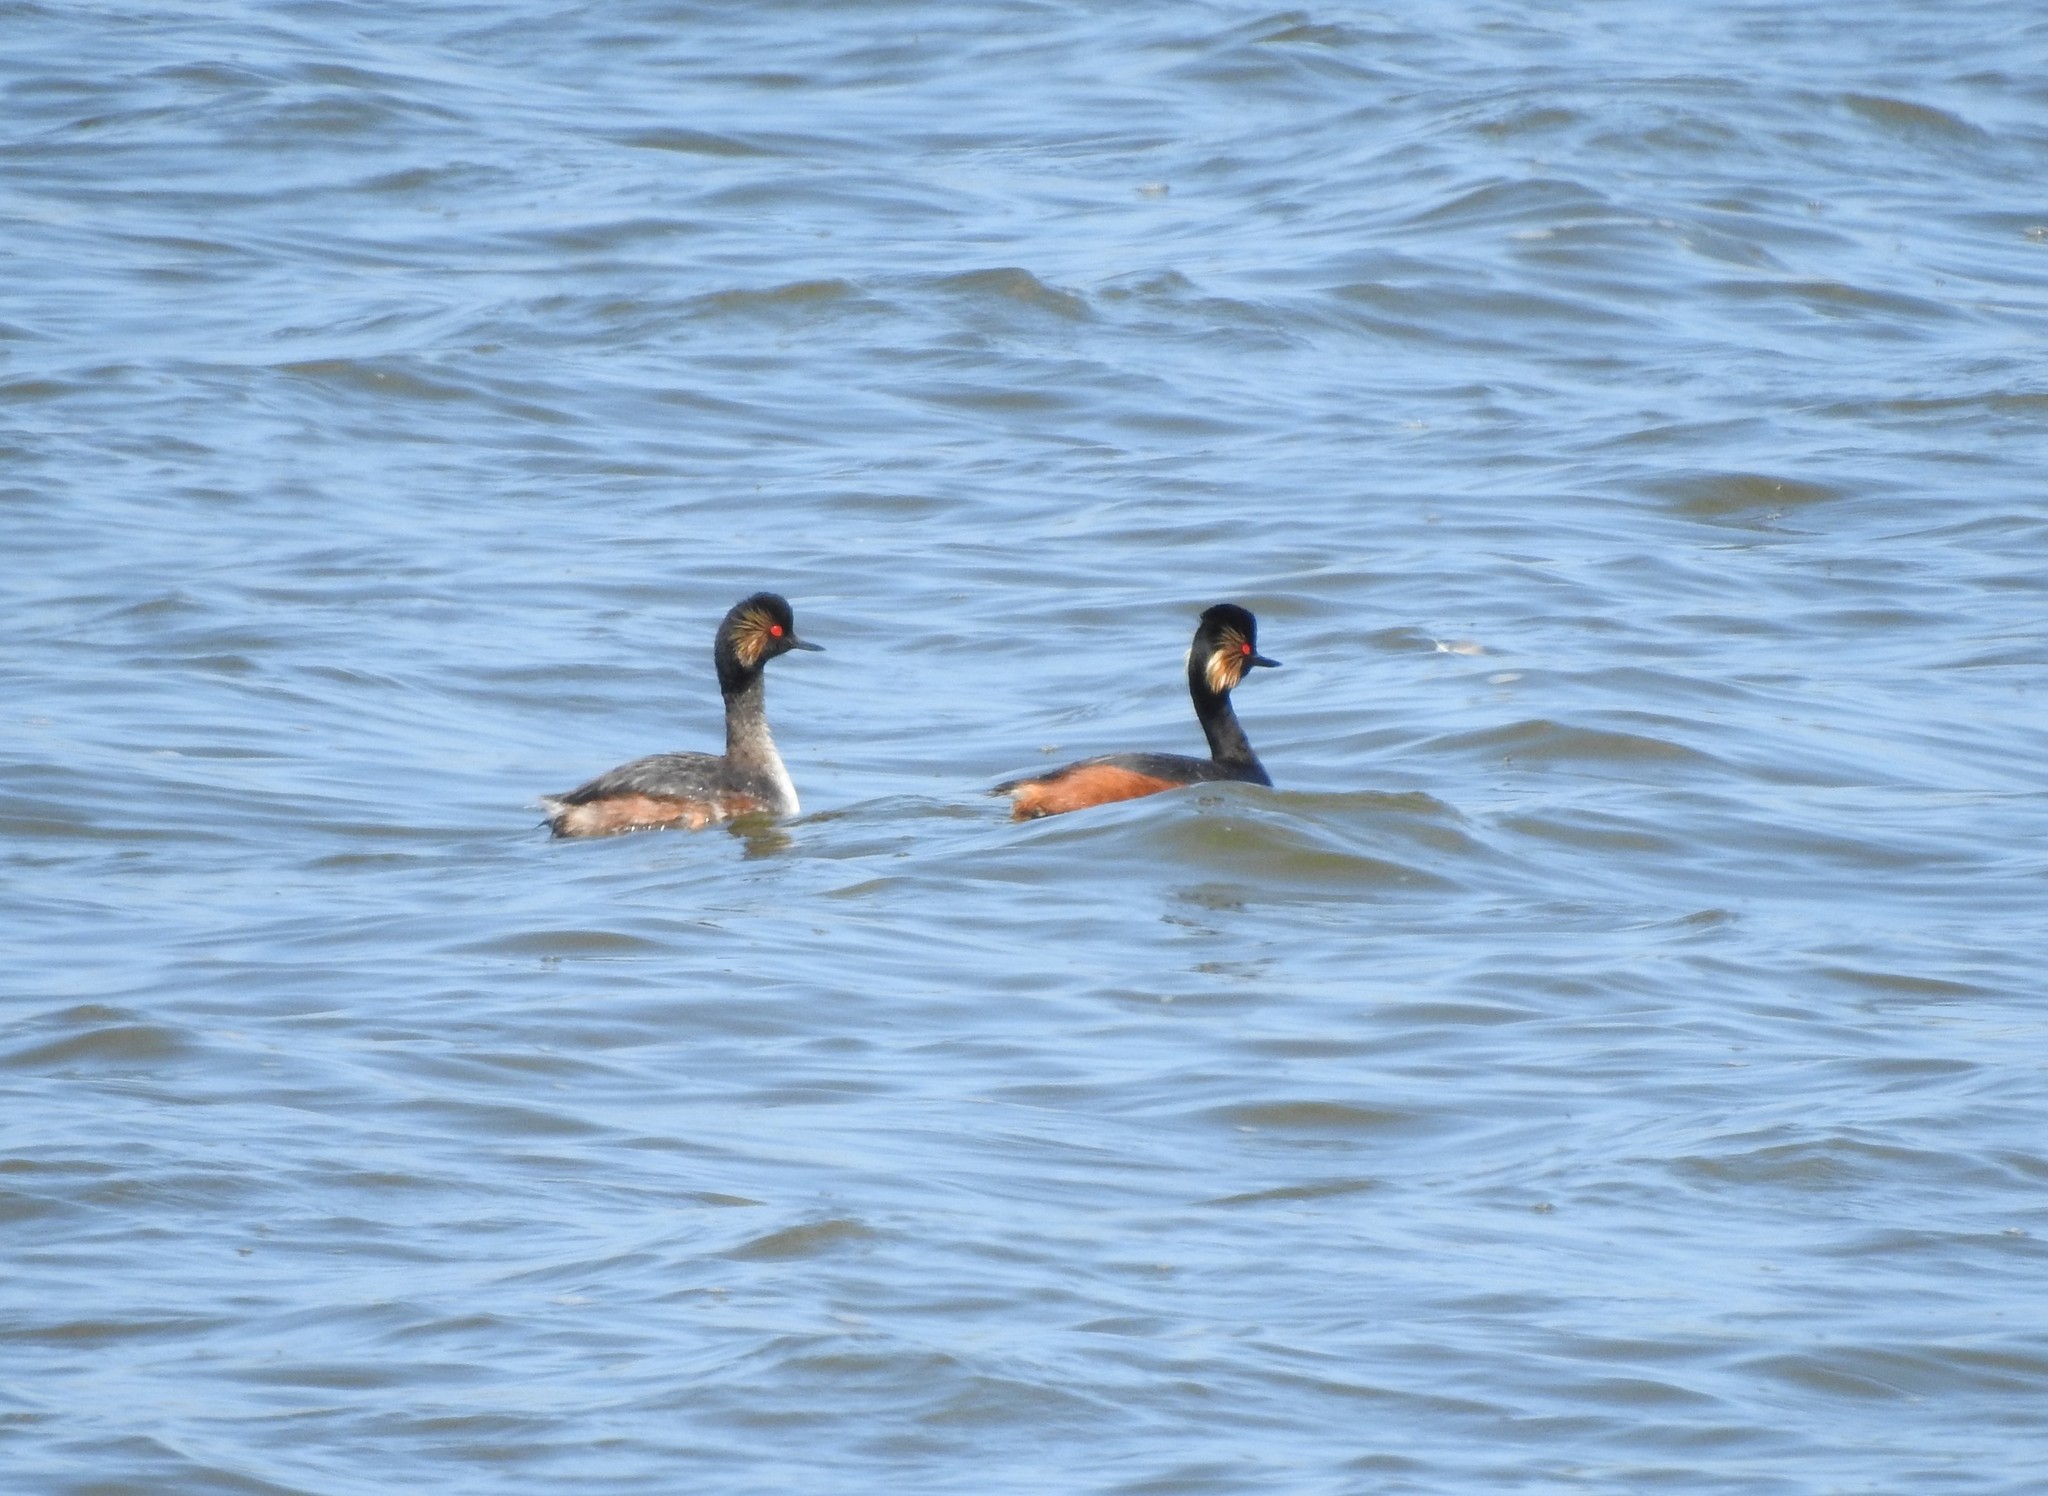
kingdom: Animalia
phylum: Chordata
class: Aves
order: Podicipediformes
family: Podicipedidae
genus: Podiceps
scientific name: Podiceps nigricollis
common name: Black-necked grebe
